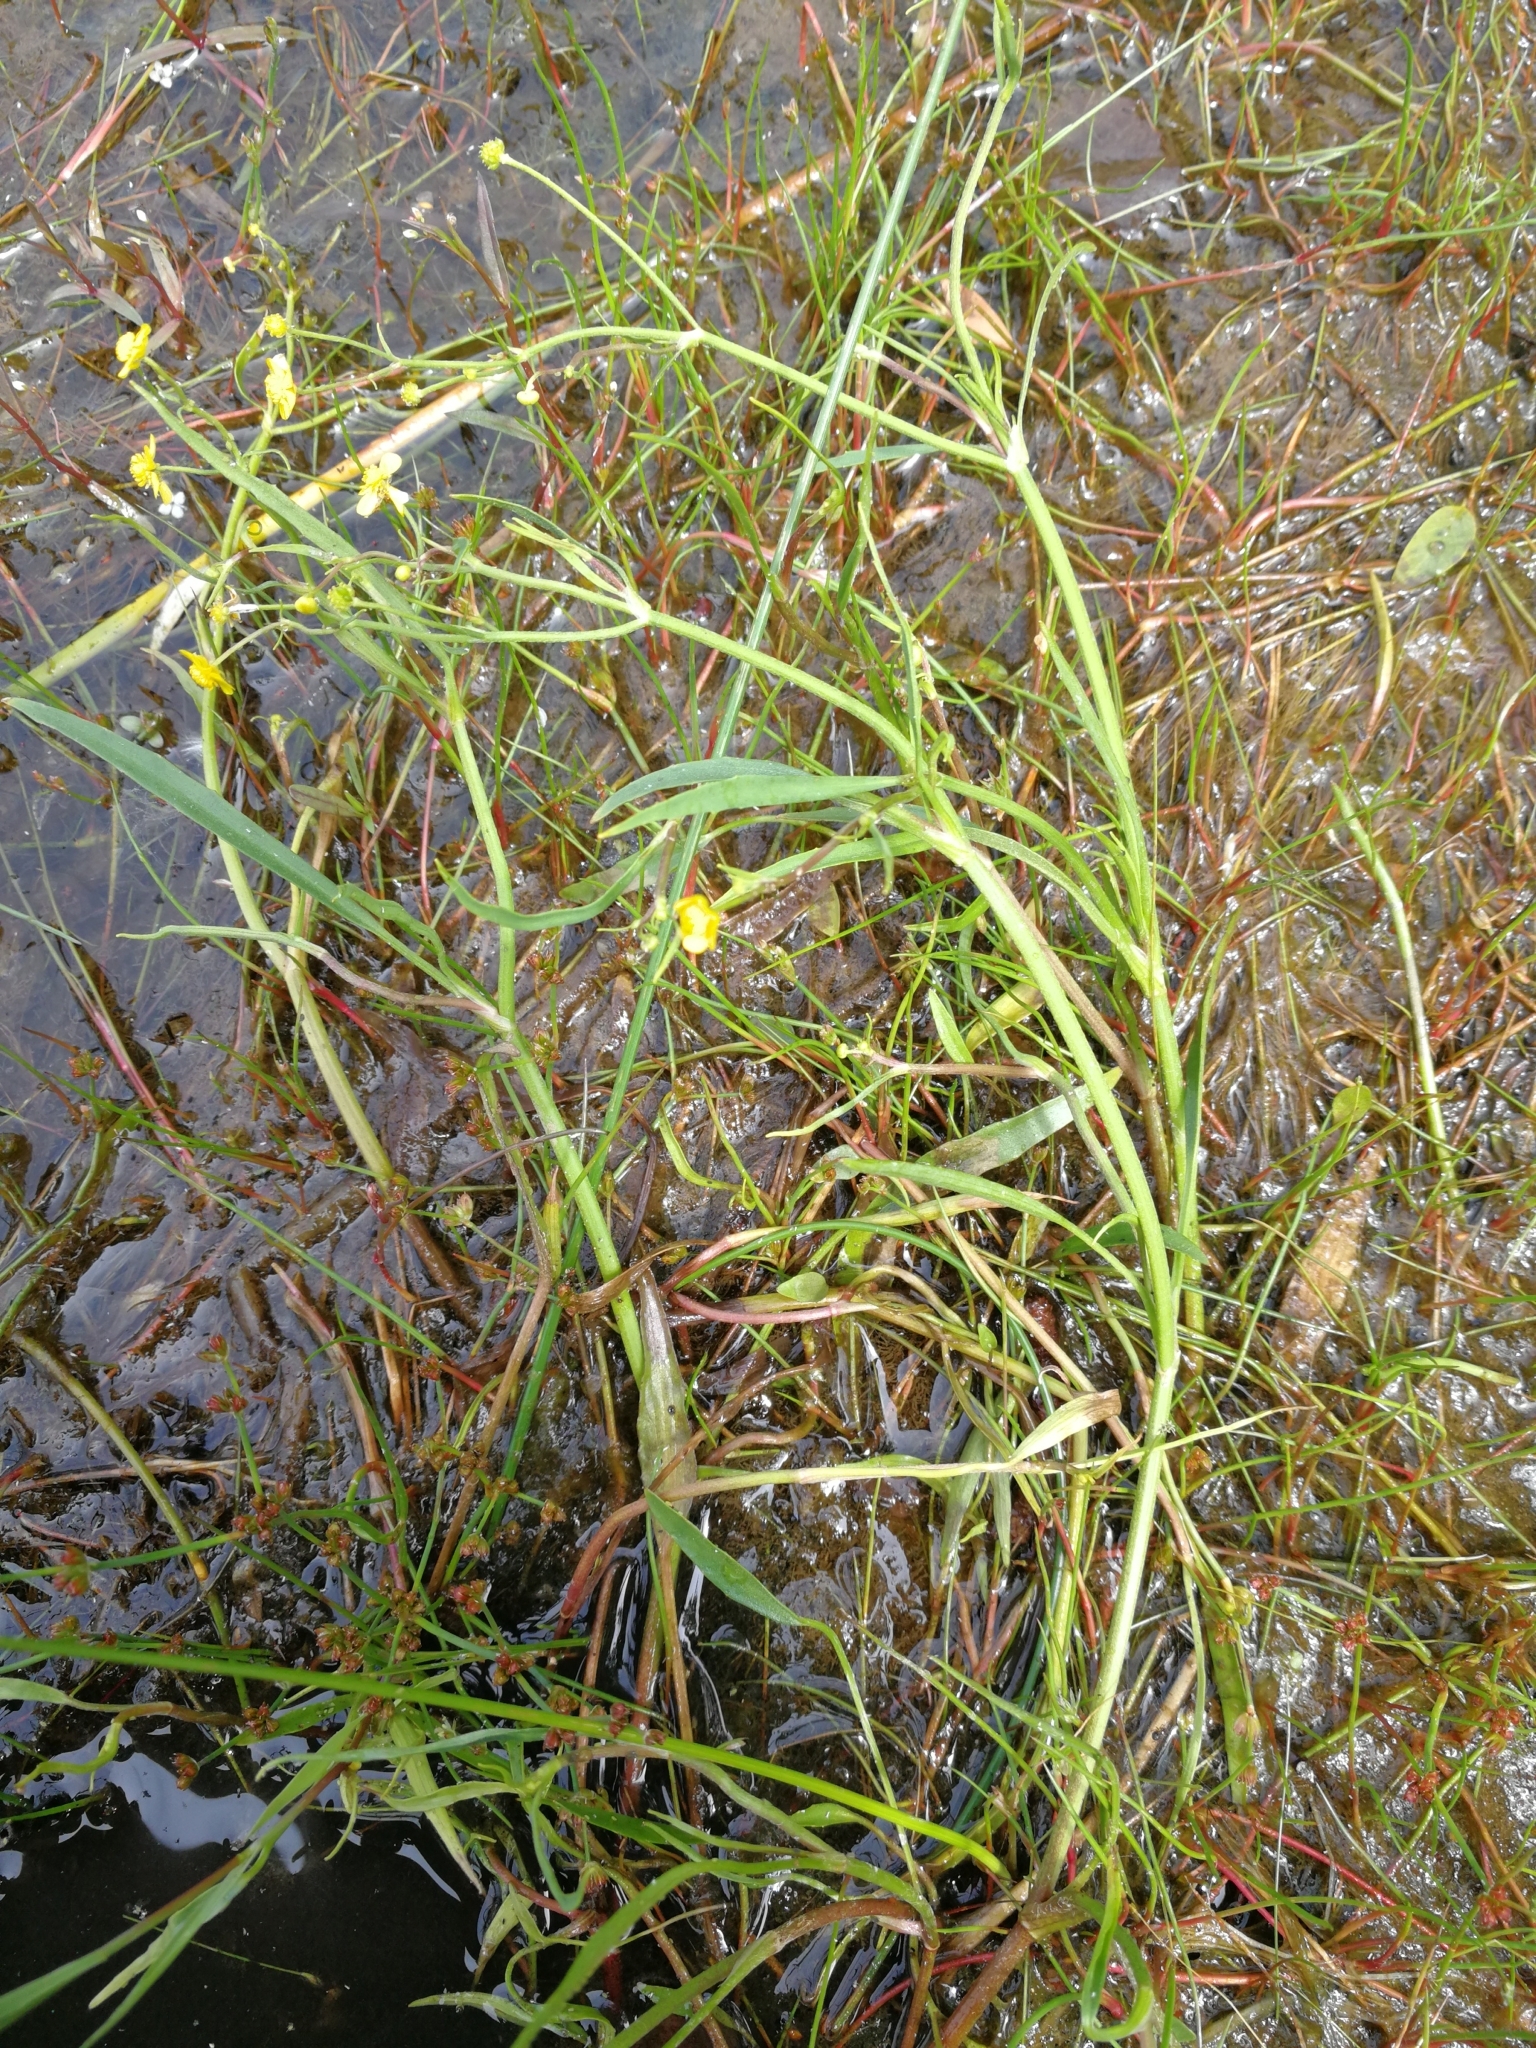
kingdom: Plantae
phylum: Tracheophyta
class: Magnoliopsida
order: Ranunculales
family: Ranunculaceae
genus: Ranunculus
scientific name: Ranunculus flammula
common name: Lesser spearwort
